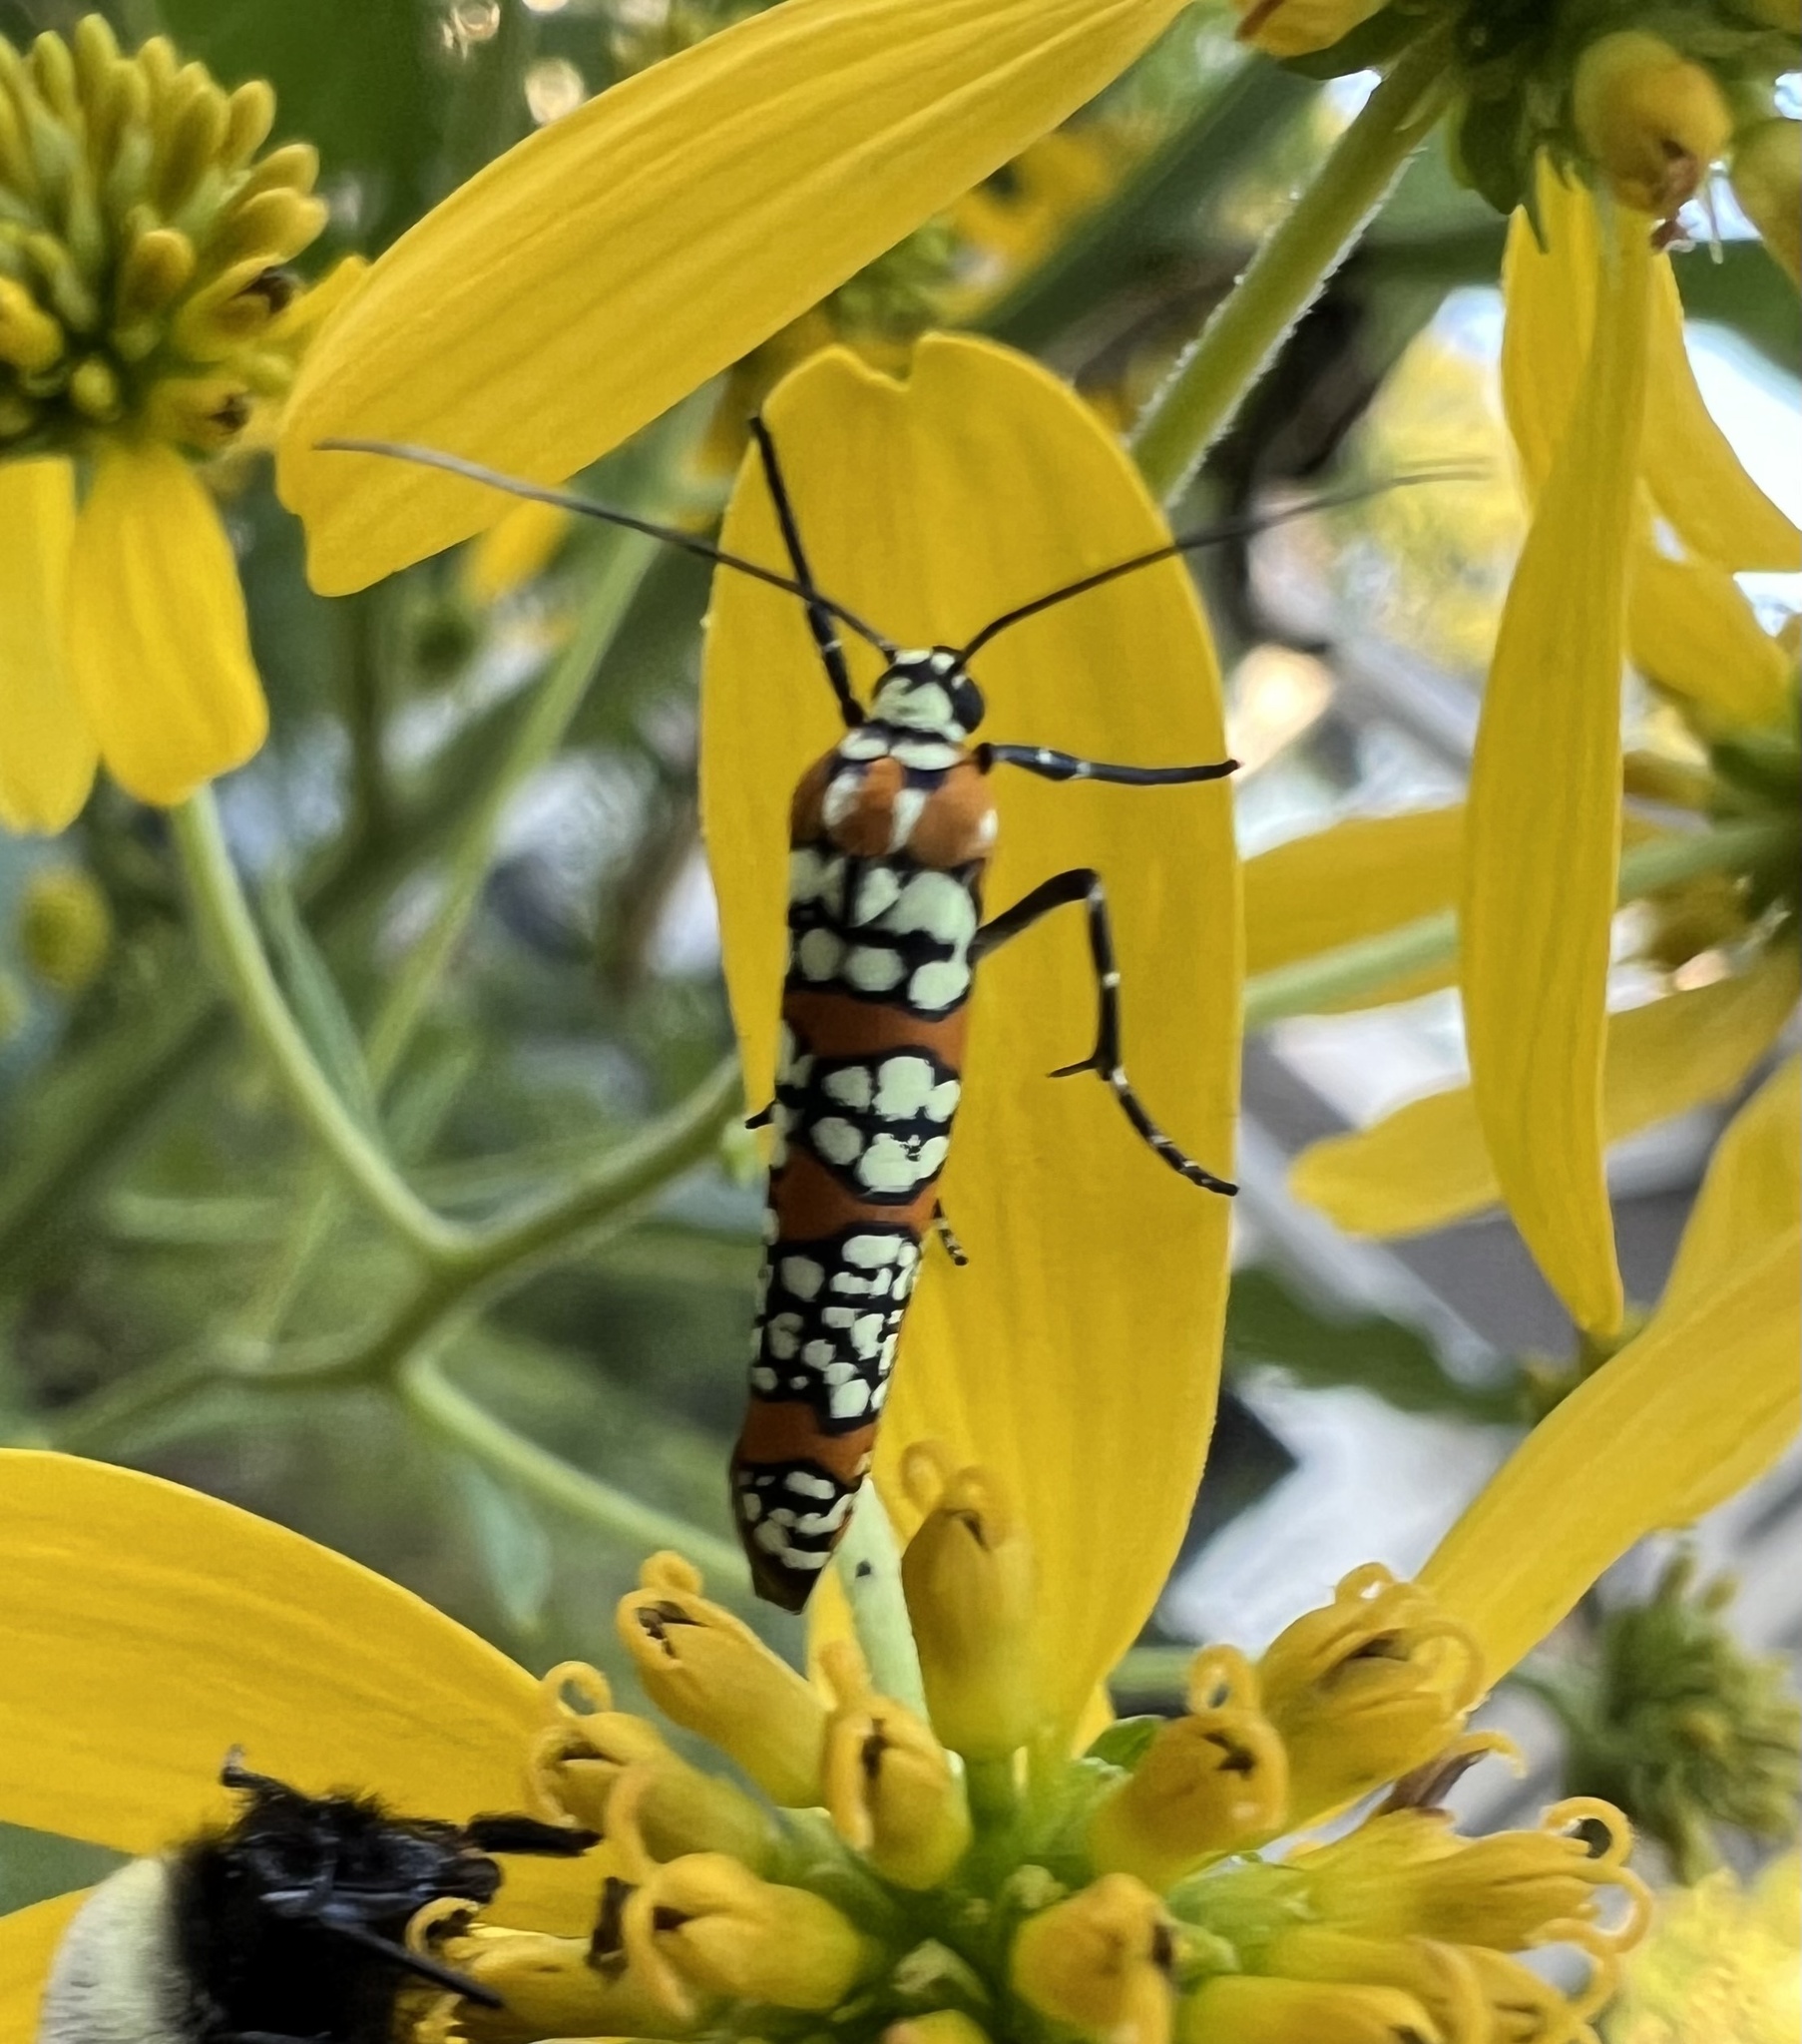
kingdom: Animalia
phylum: Arthropoda
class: Insecta
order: Lepidoptera
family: Attevidae
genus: Atteva
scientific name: Atteva punctella
